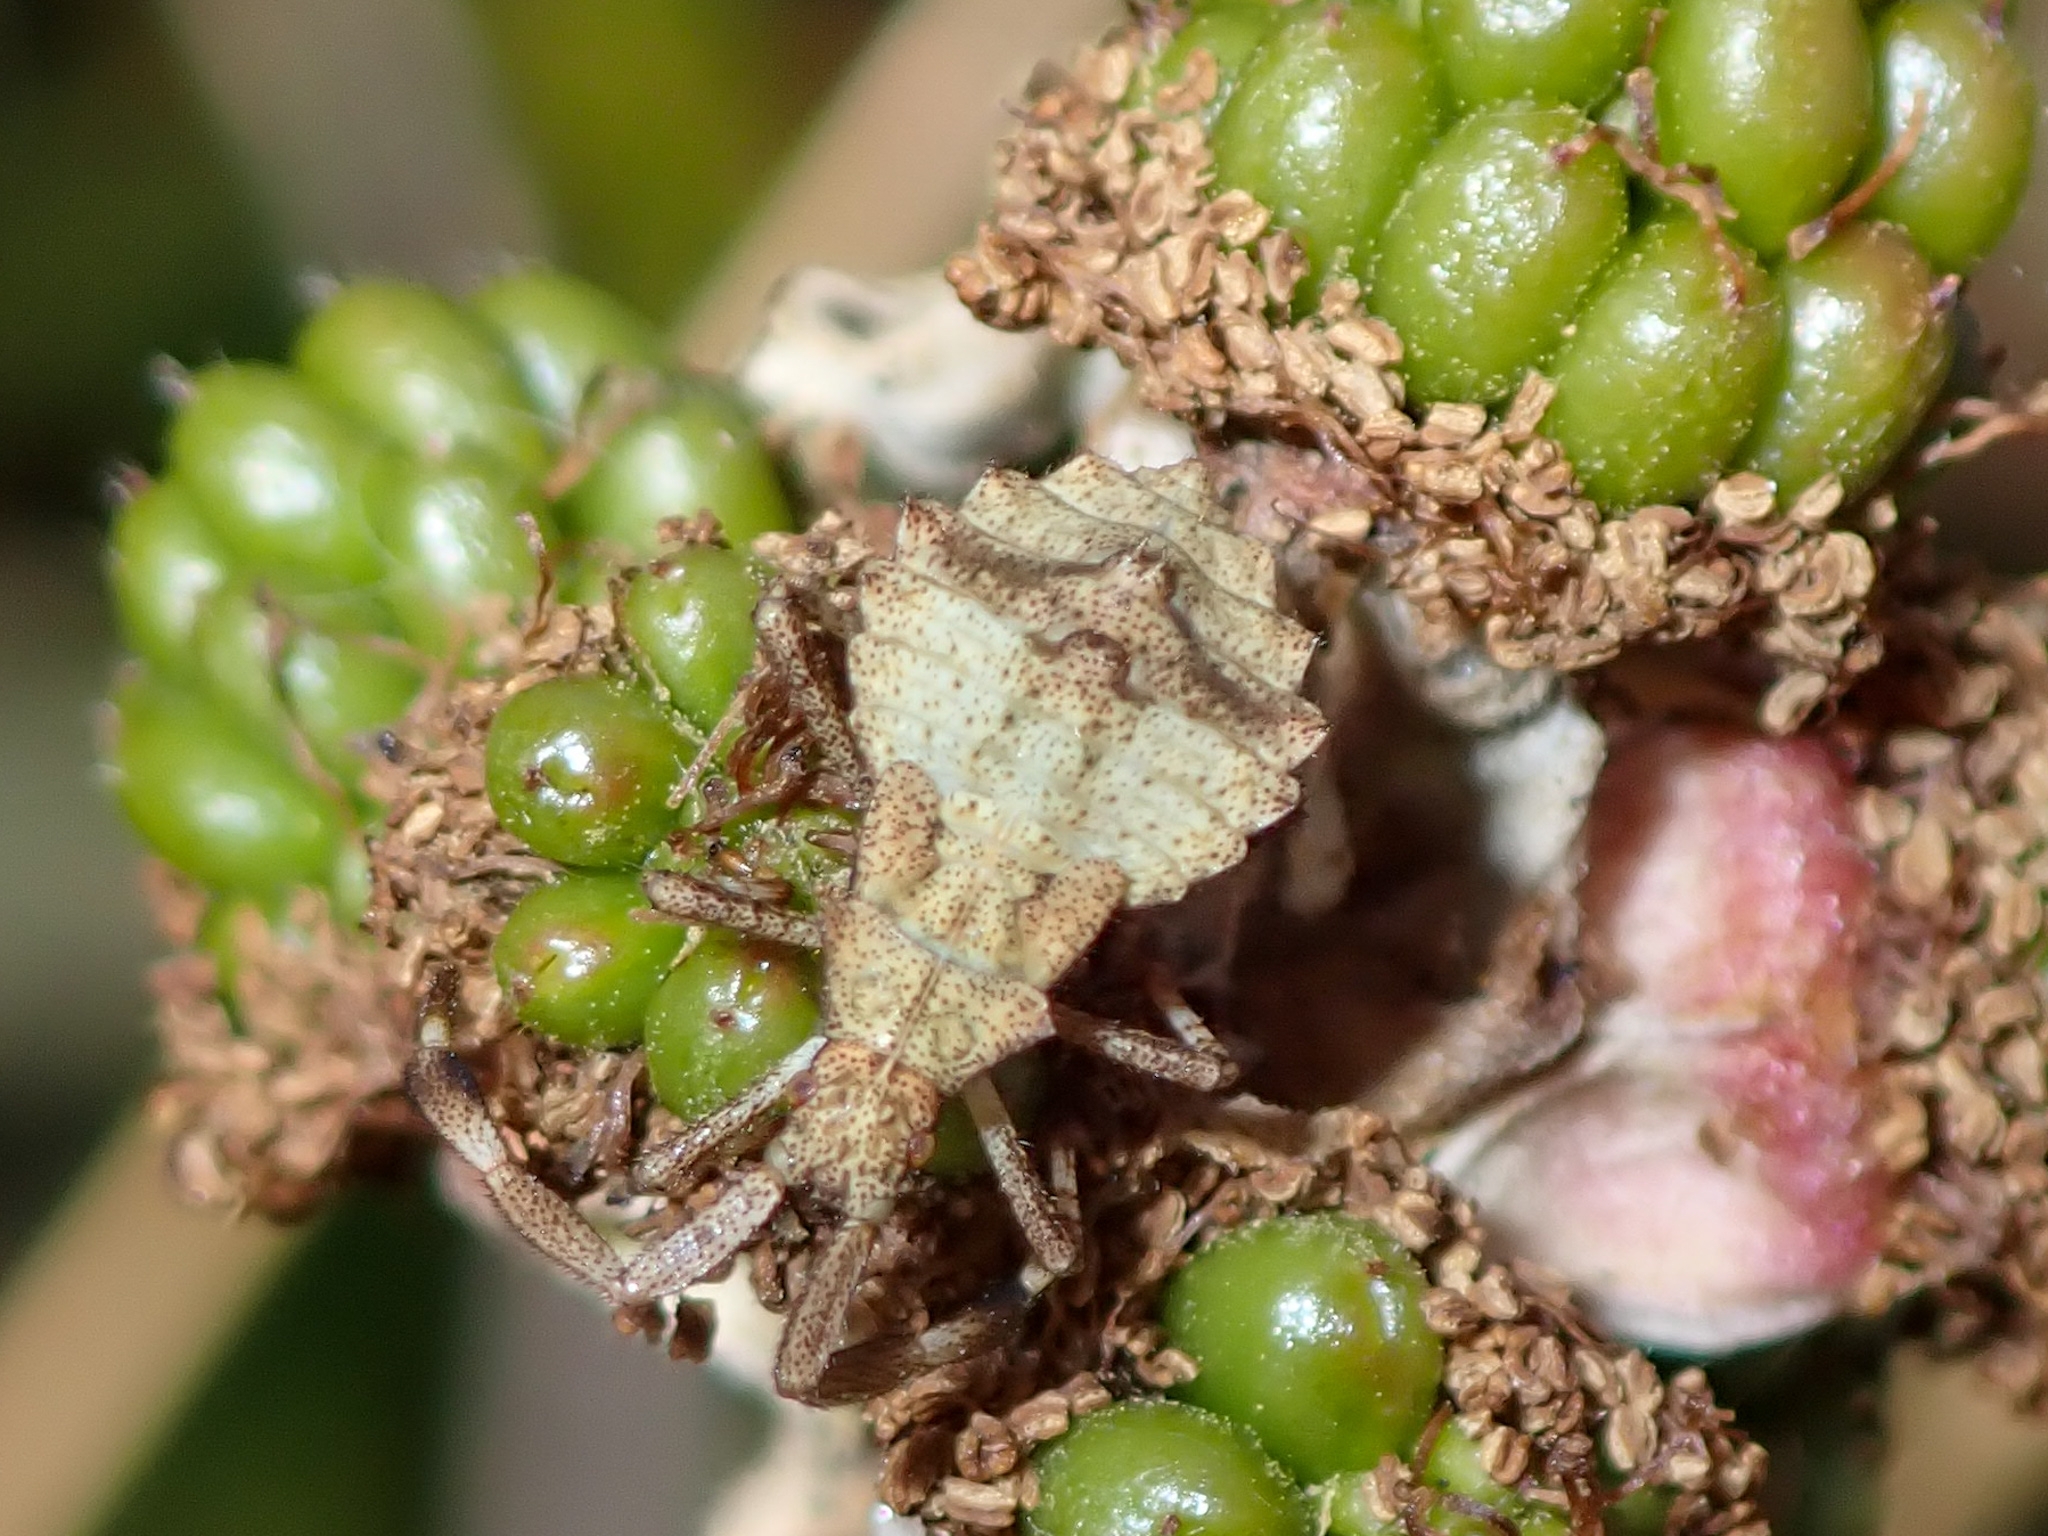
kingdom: Animalia
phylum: Arthropoda
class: Insecta
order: Hemiptera
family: Coreidae
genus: Coreus
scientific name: Coreus marginatus
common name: Dock bug
